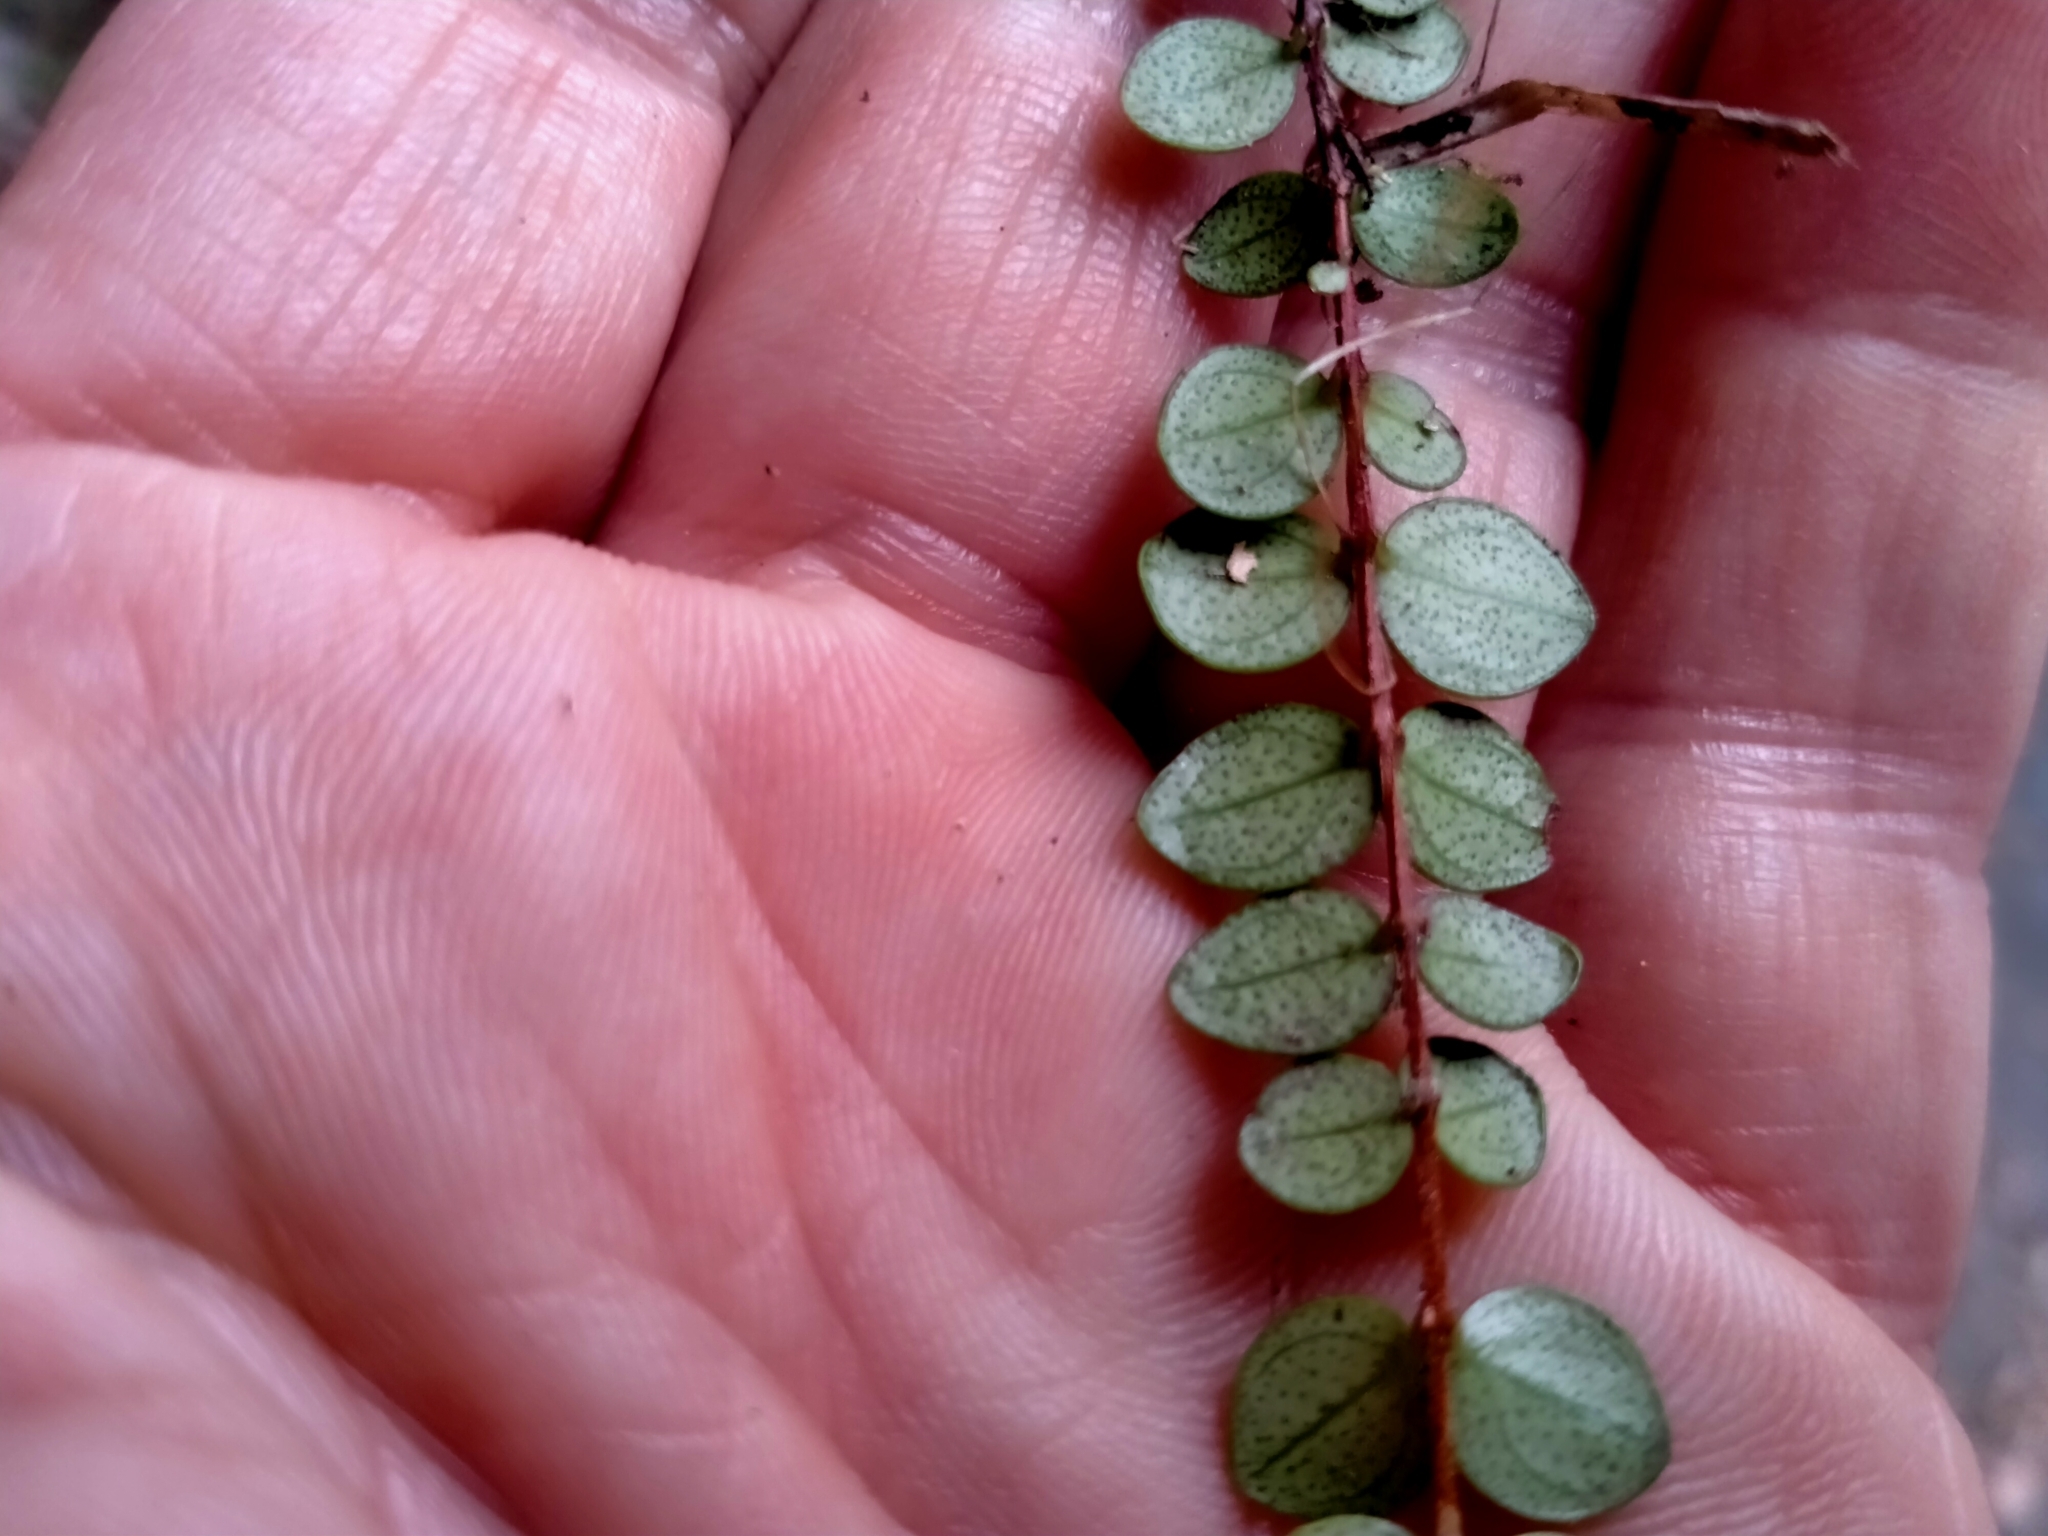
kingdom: Plantae
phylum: Tracheophyta
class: Magnoliopsida
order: Myrtales
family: Myrtaceae
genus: Metrosideros
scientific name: Metrosideros perforata
